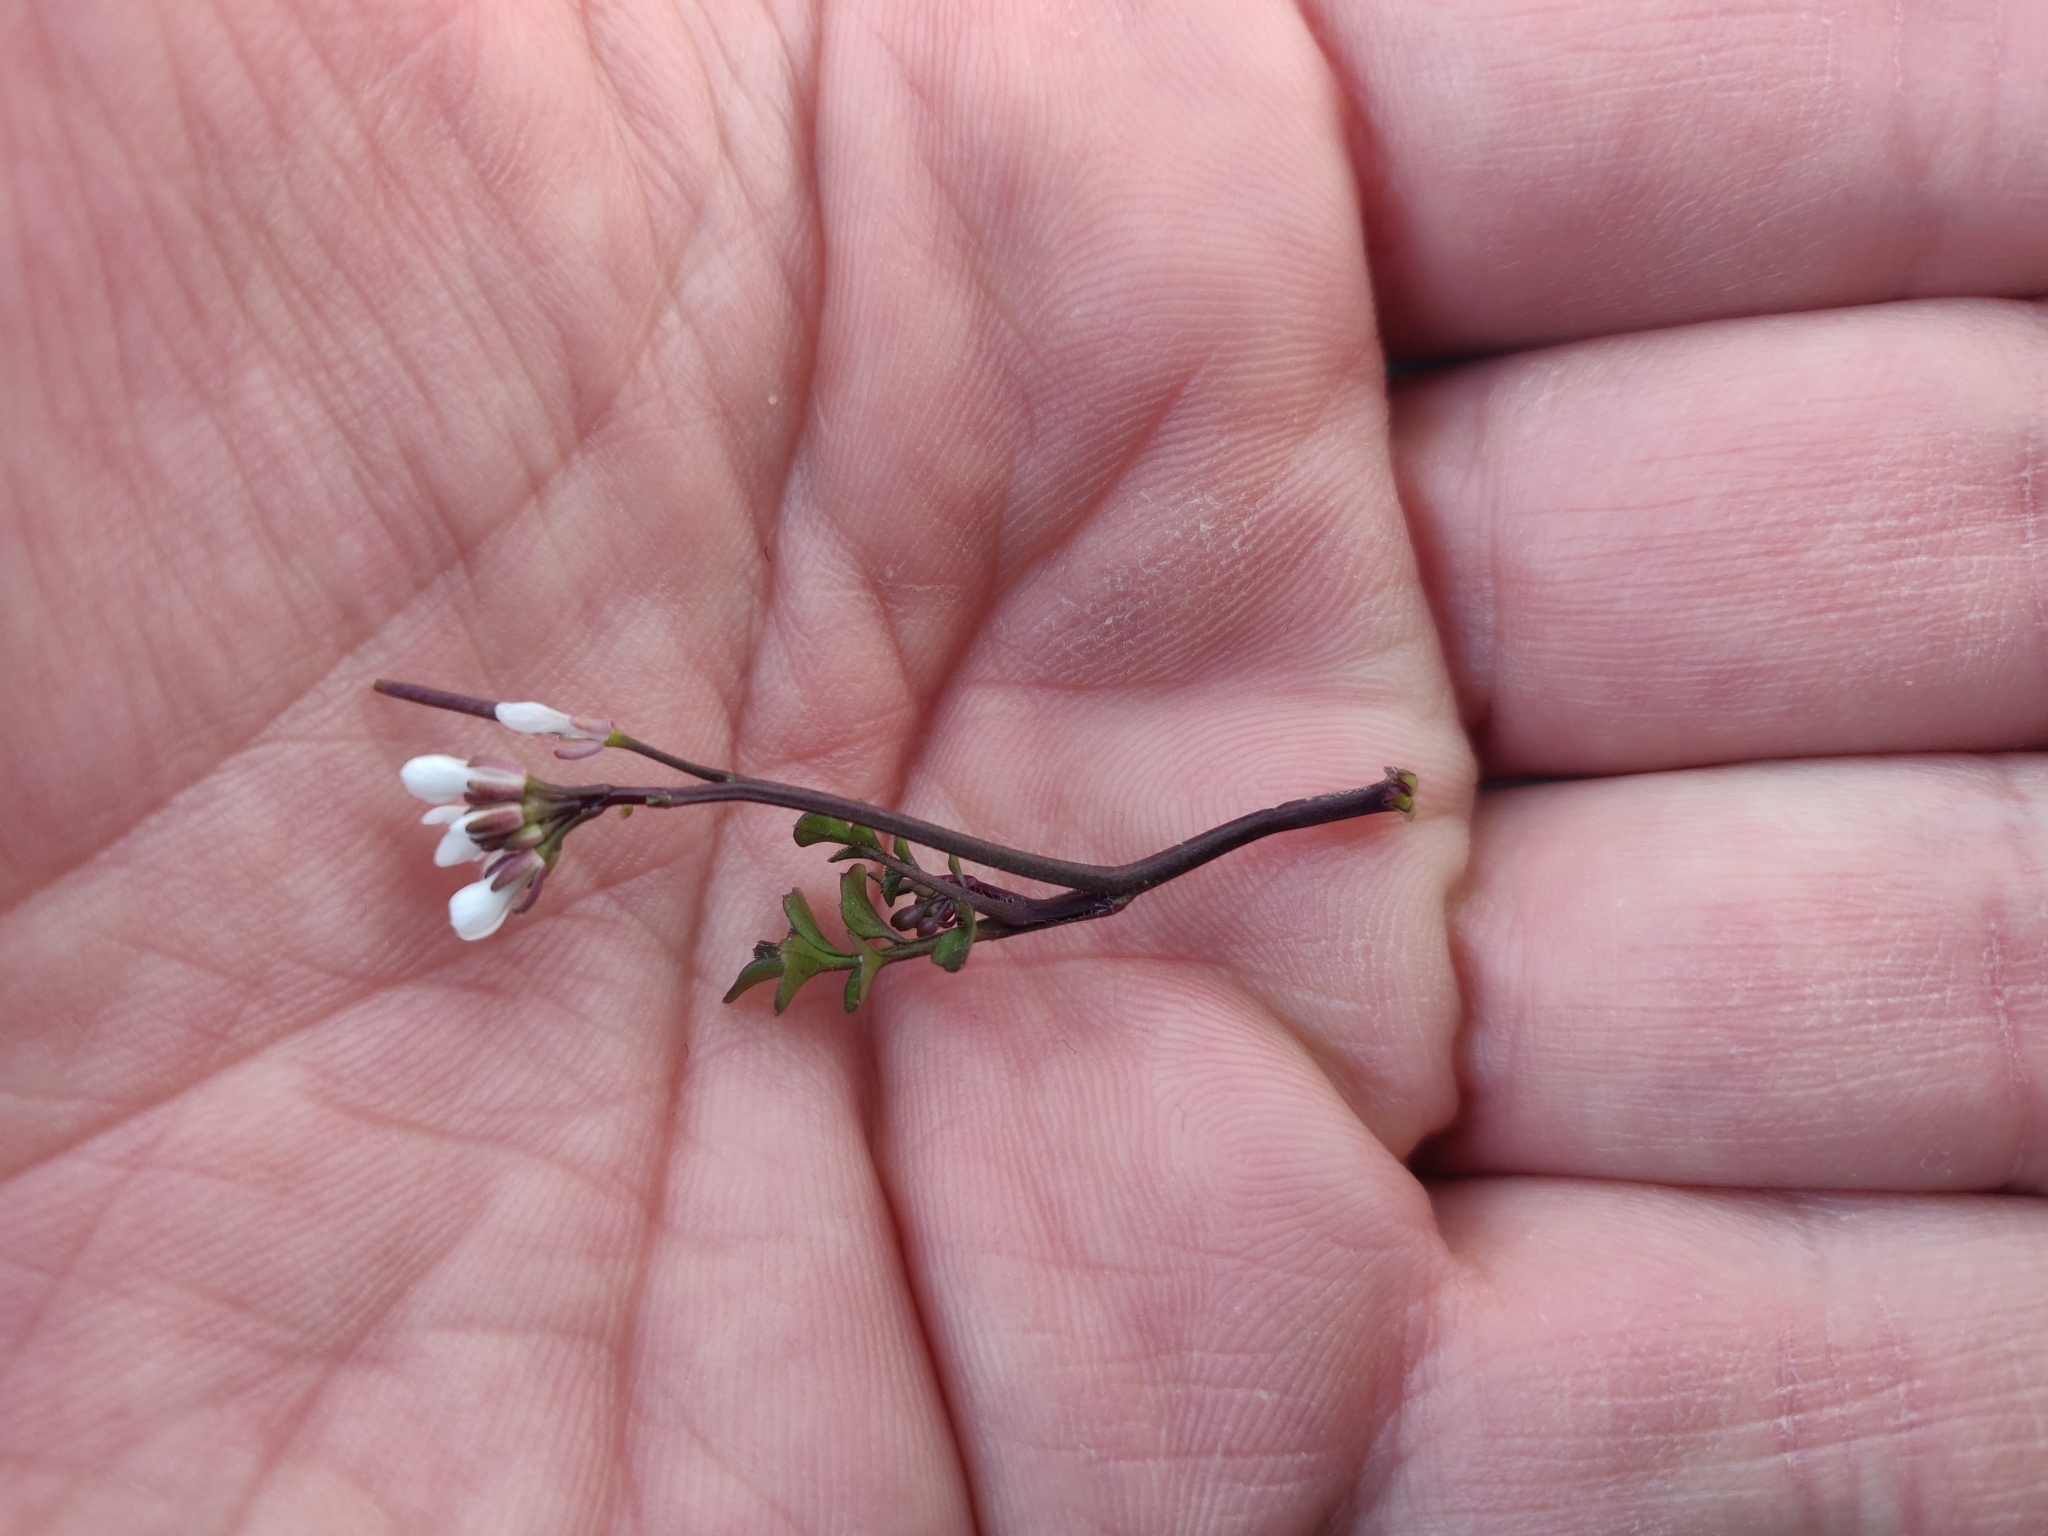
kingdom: Plantae
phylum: Tracheophyta
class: Magnoliopsida
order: Brassicales
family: Brassicaceae
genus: Cardamine
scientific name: Cardamine hirsuta
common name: Hairy bittercress
